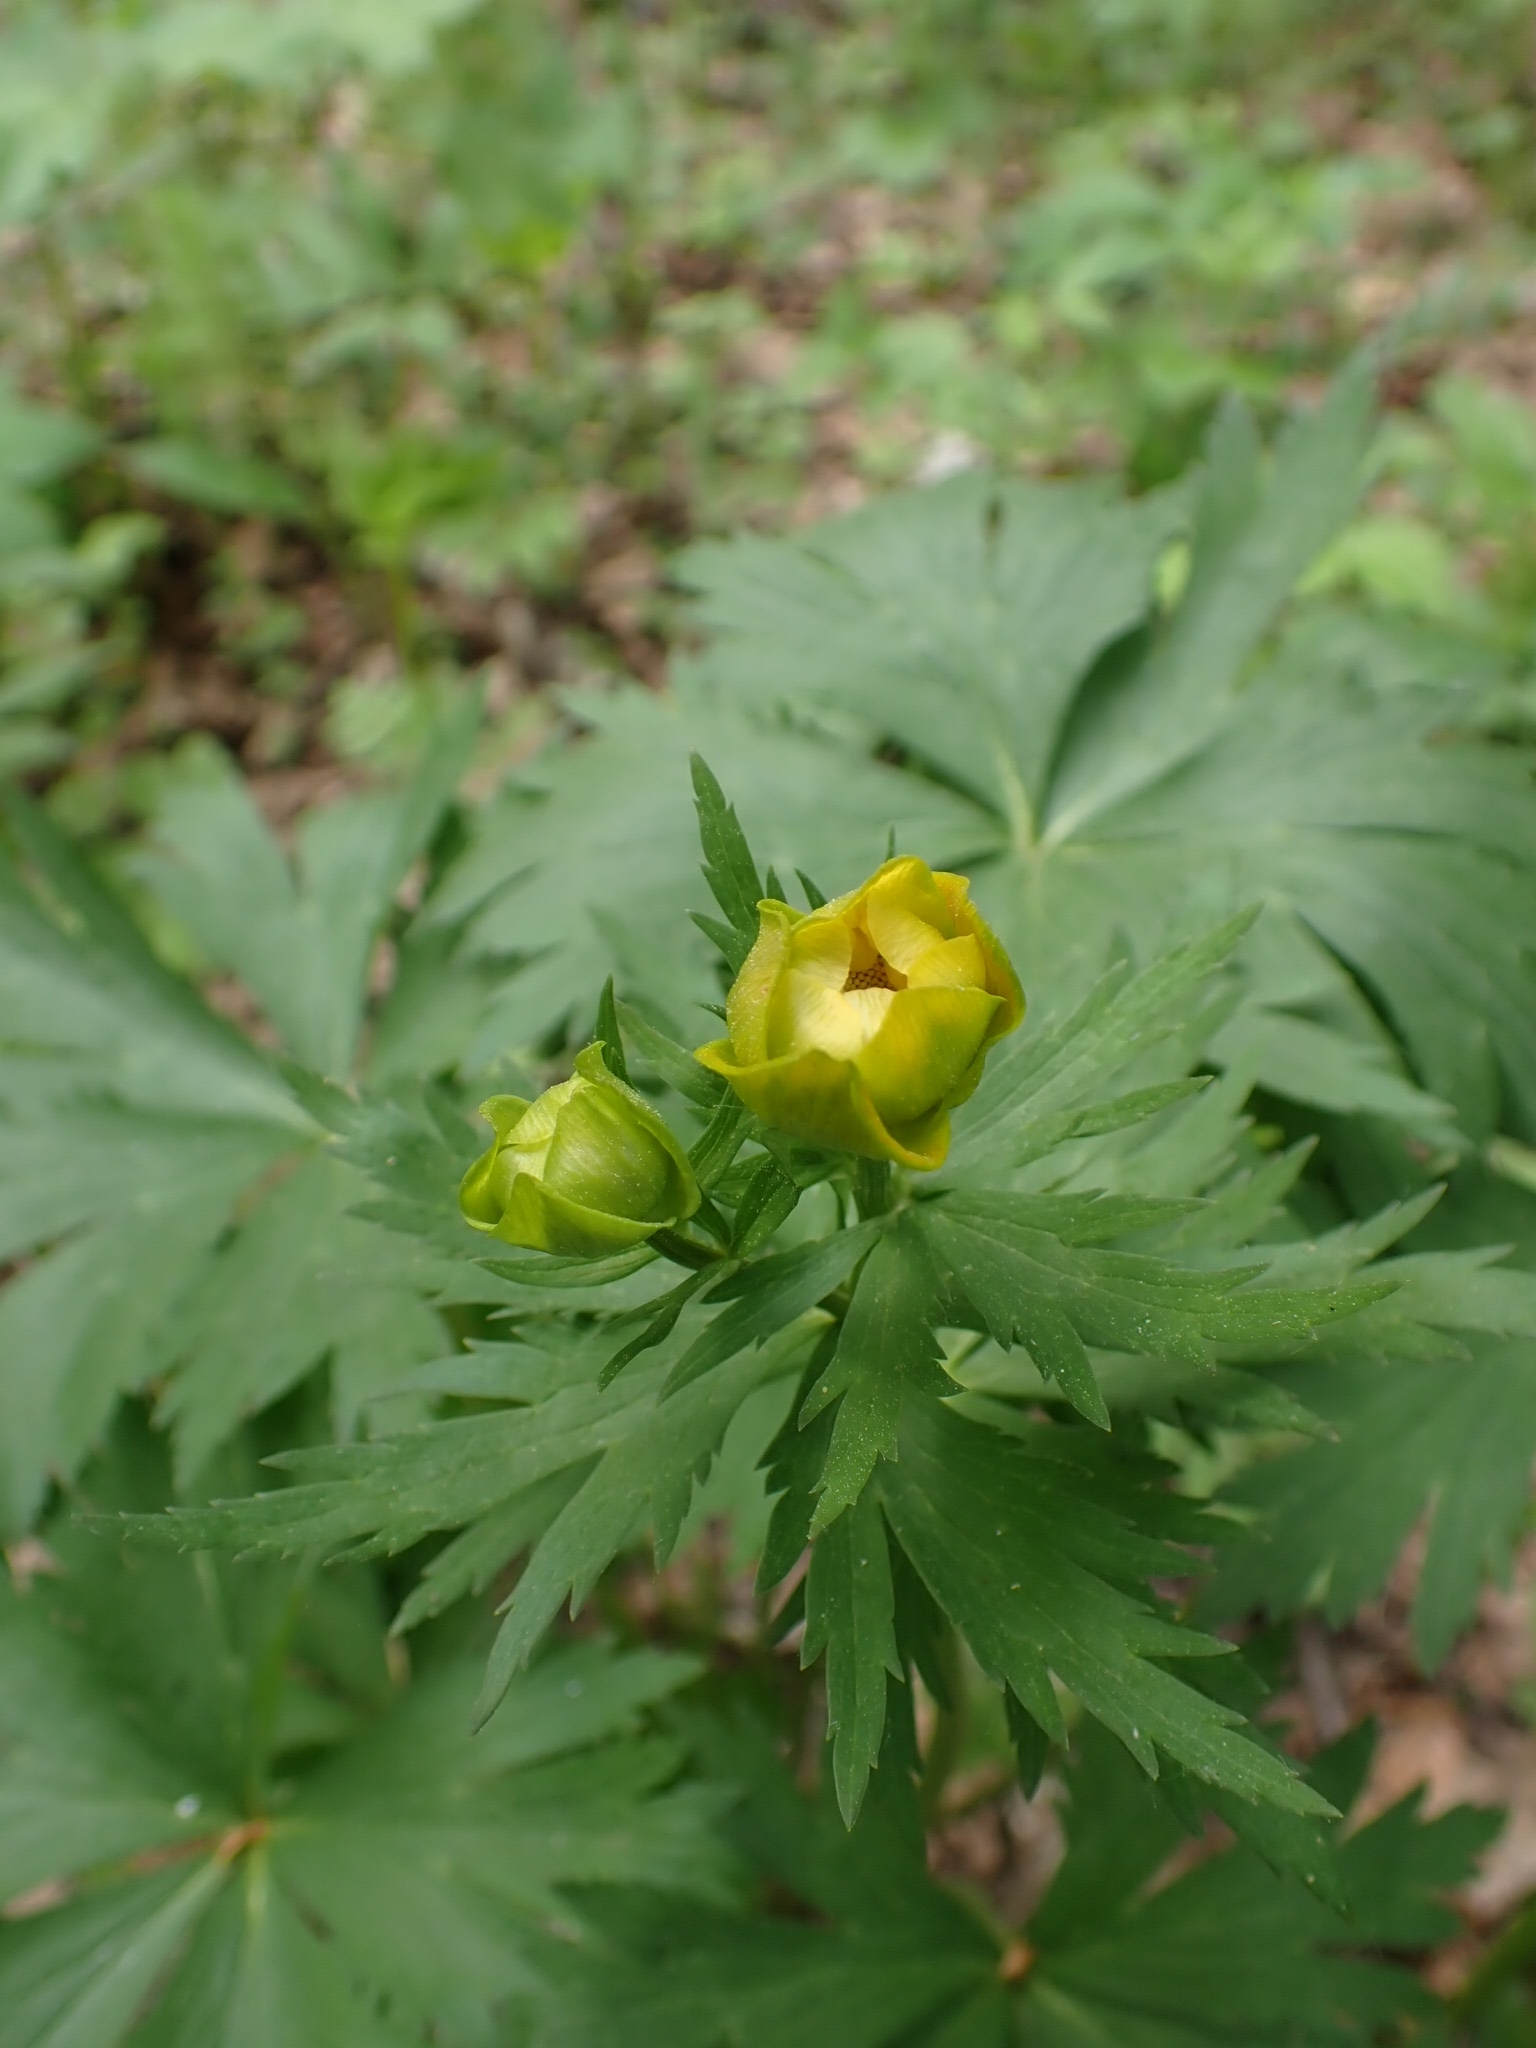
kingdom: Plantae
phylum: Tracheophyta
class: Magnoliopsida
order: Ranunculales
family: Ranunculaceae
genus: Trollius
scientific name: Trollius asiaticus
